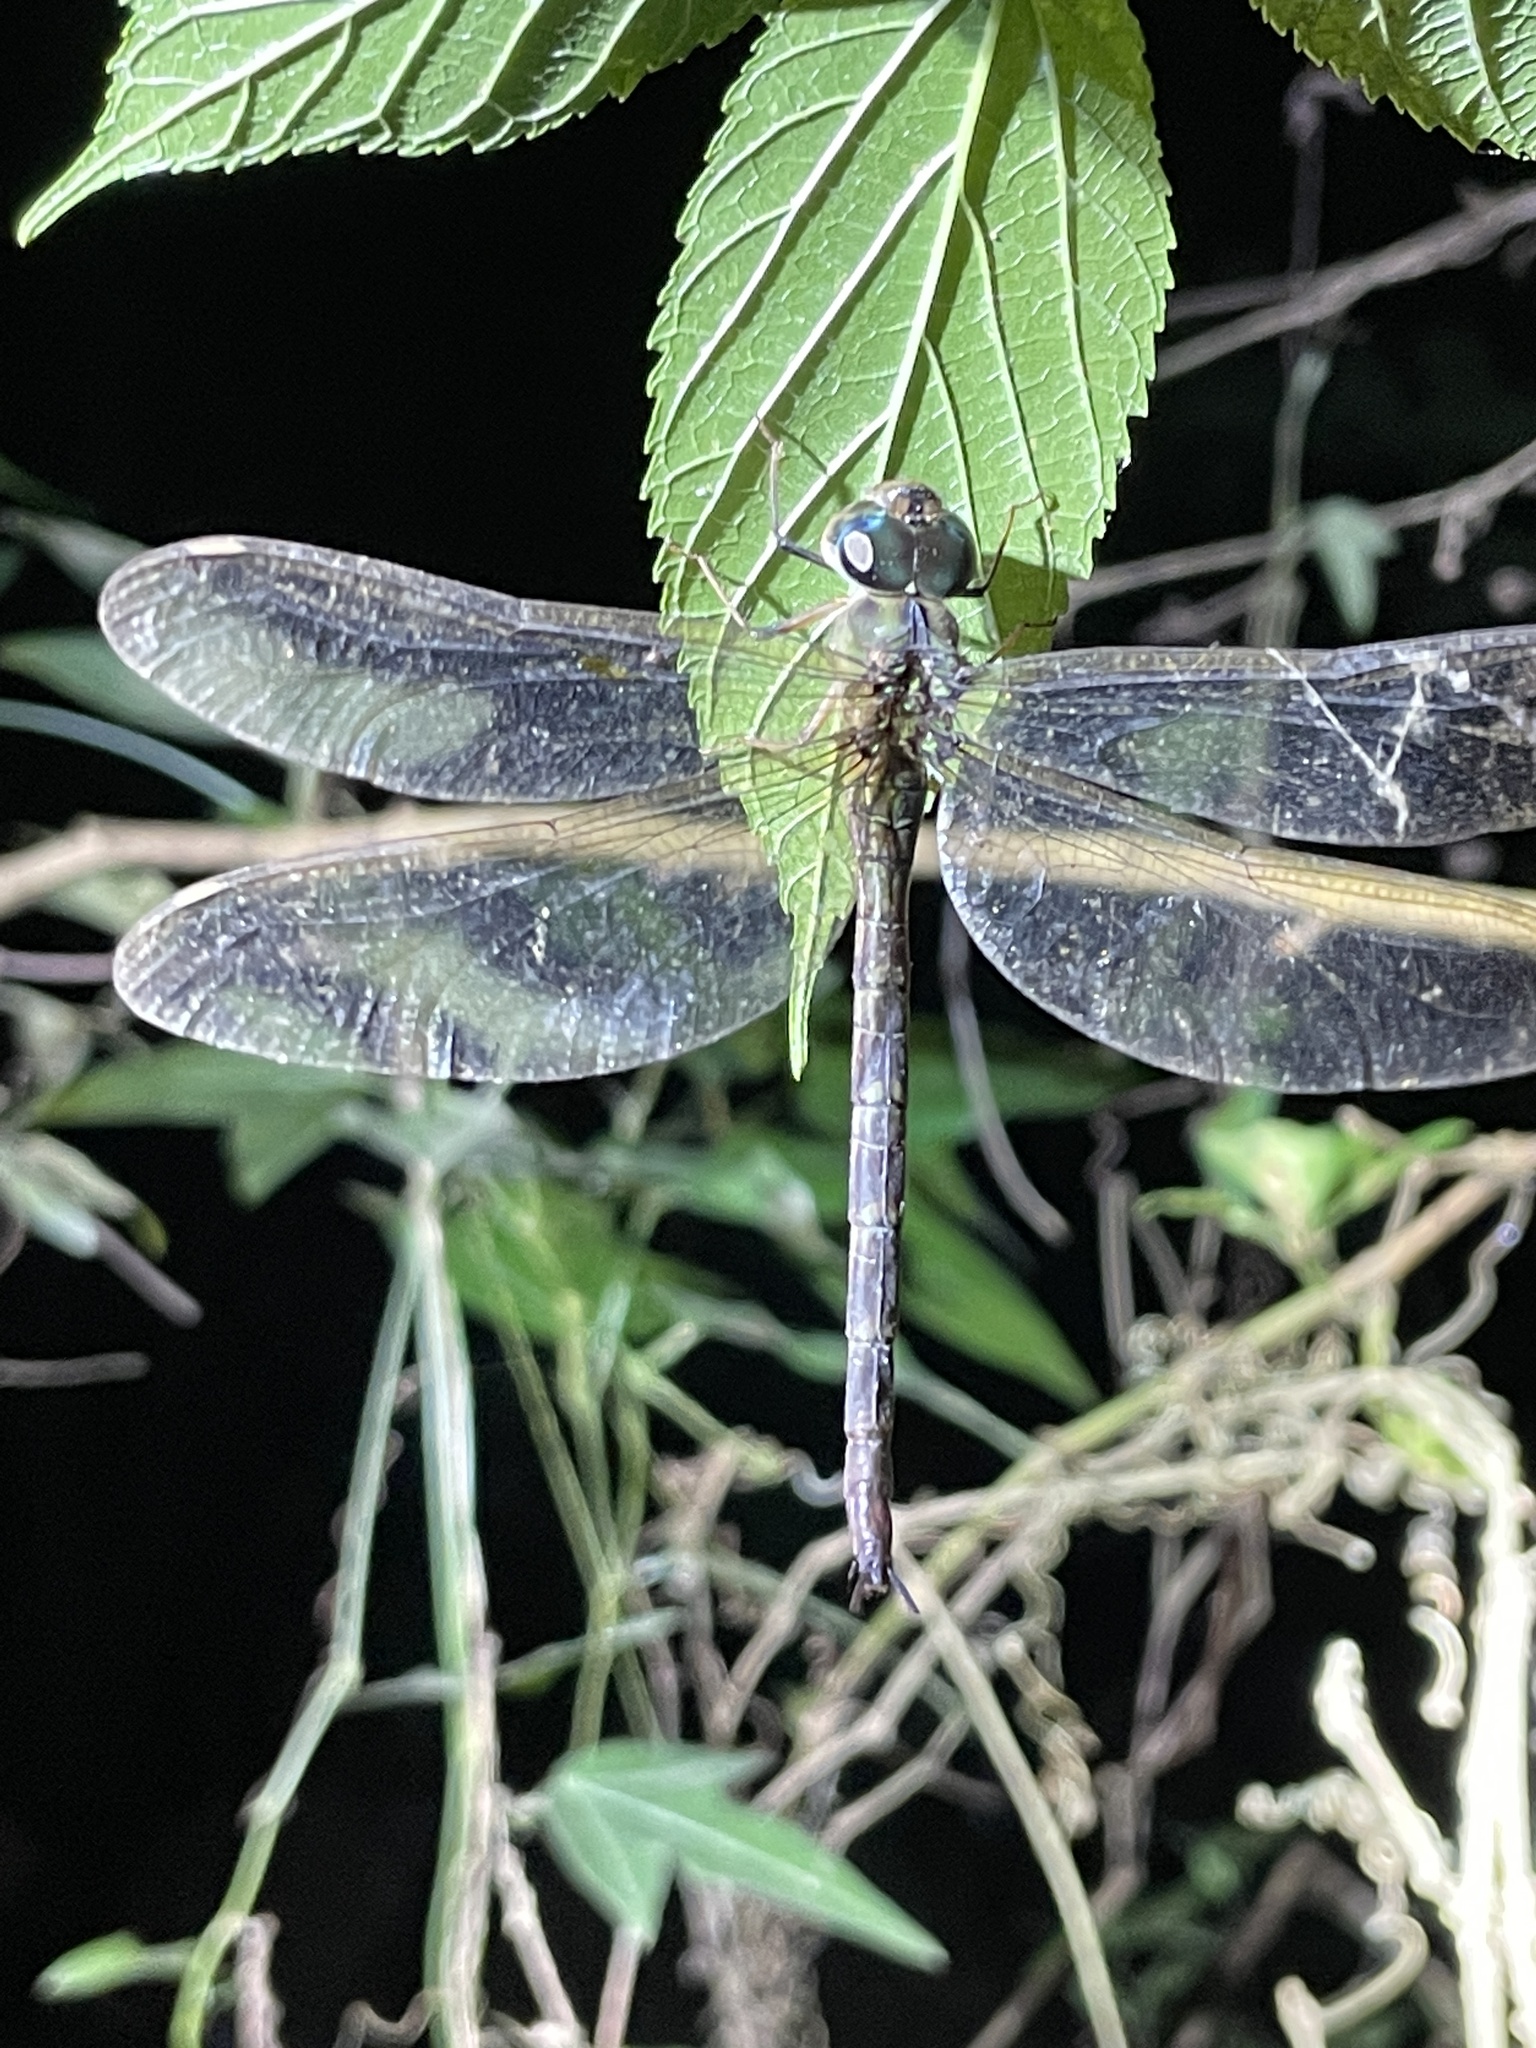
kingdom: Animalia
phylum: Arthropoda
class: Insecta
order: Odonata
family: Aeshnidae
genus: Gynacantha
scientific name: Gynacantha subinterrupta
